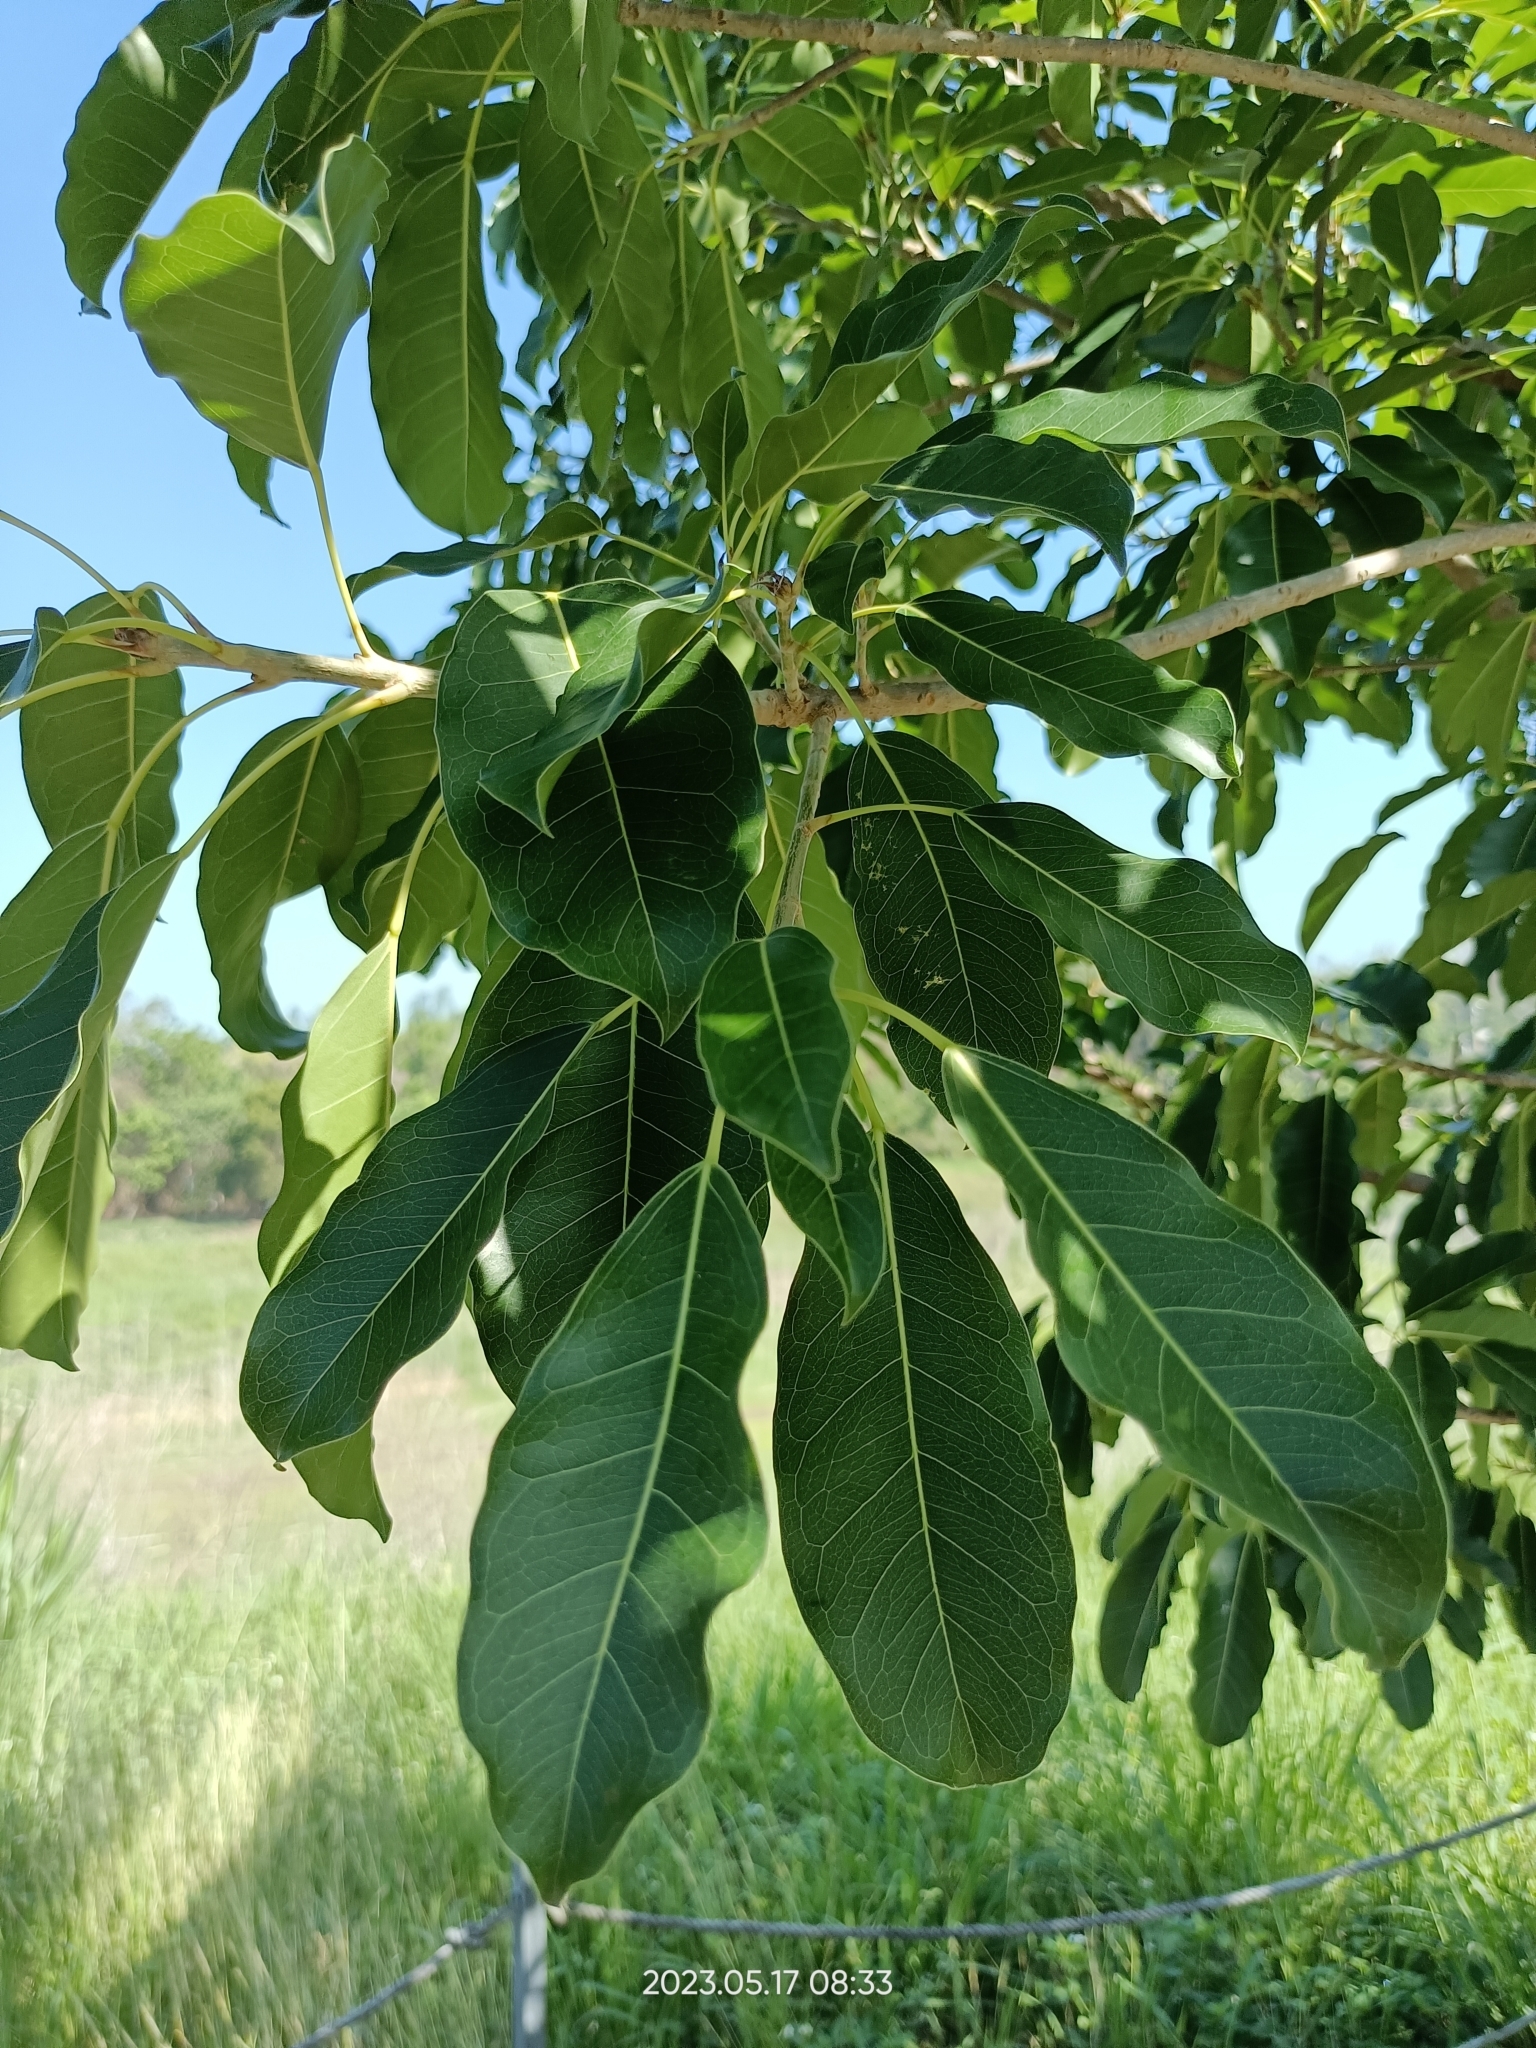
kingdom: Plantae
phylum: Tracheophyta
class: Magnoliopsida
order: Rosales
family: Moraceae
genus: Ficus
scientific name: Ficus subpisocarpa
